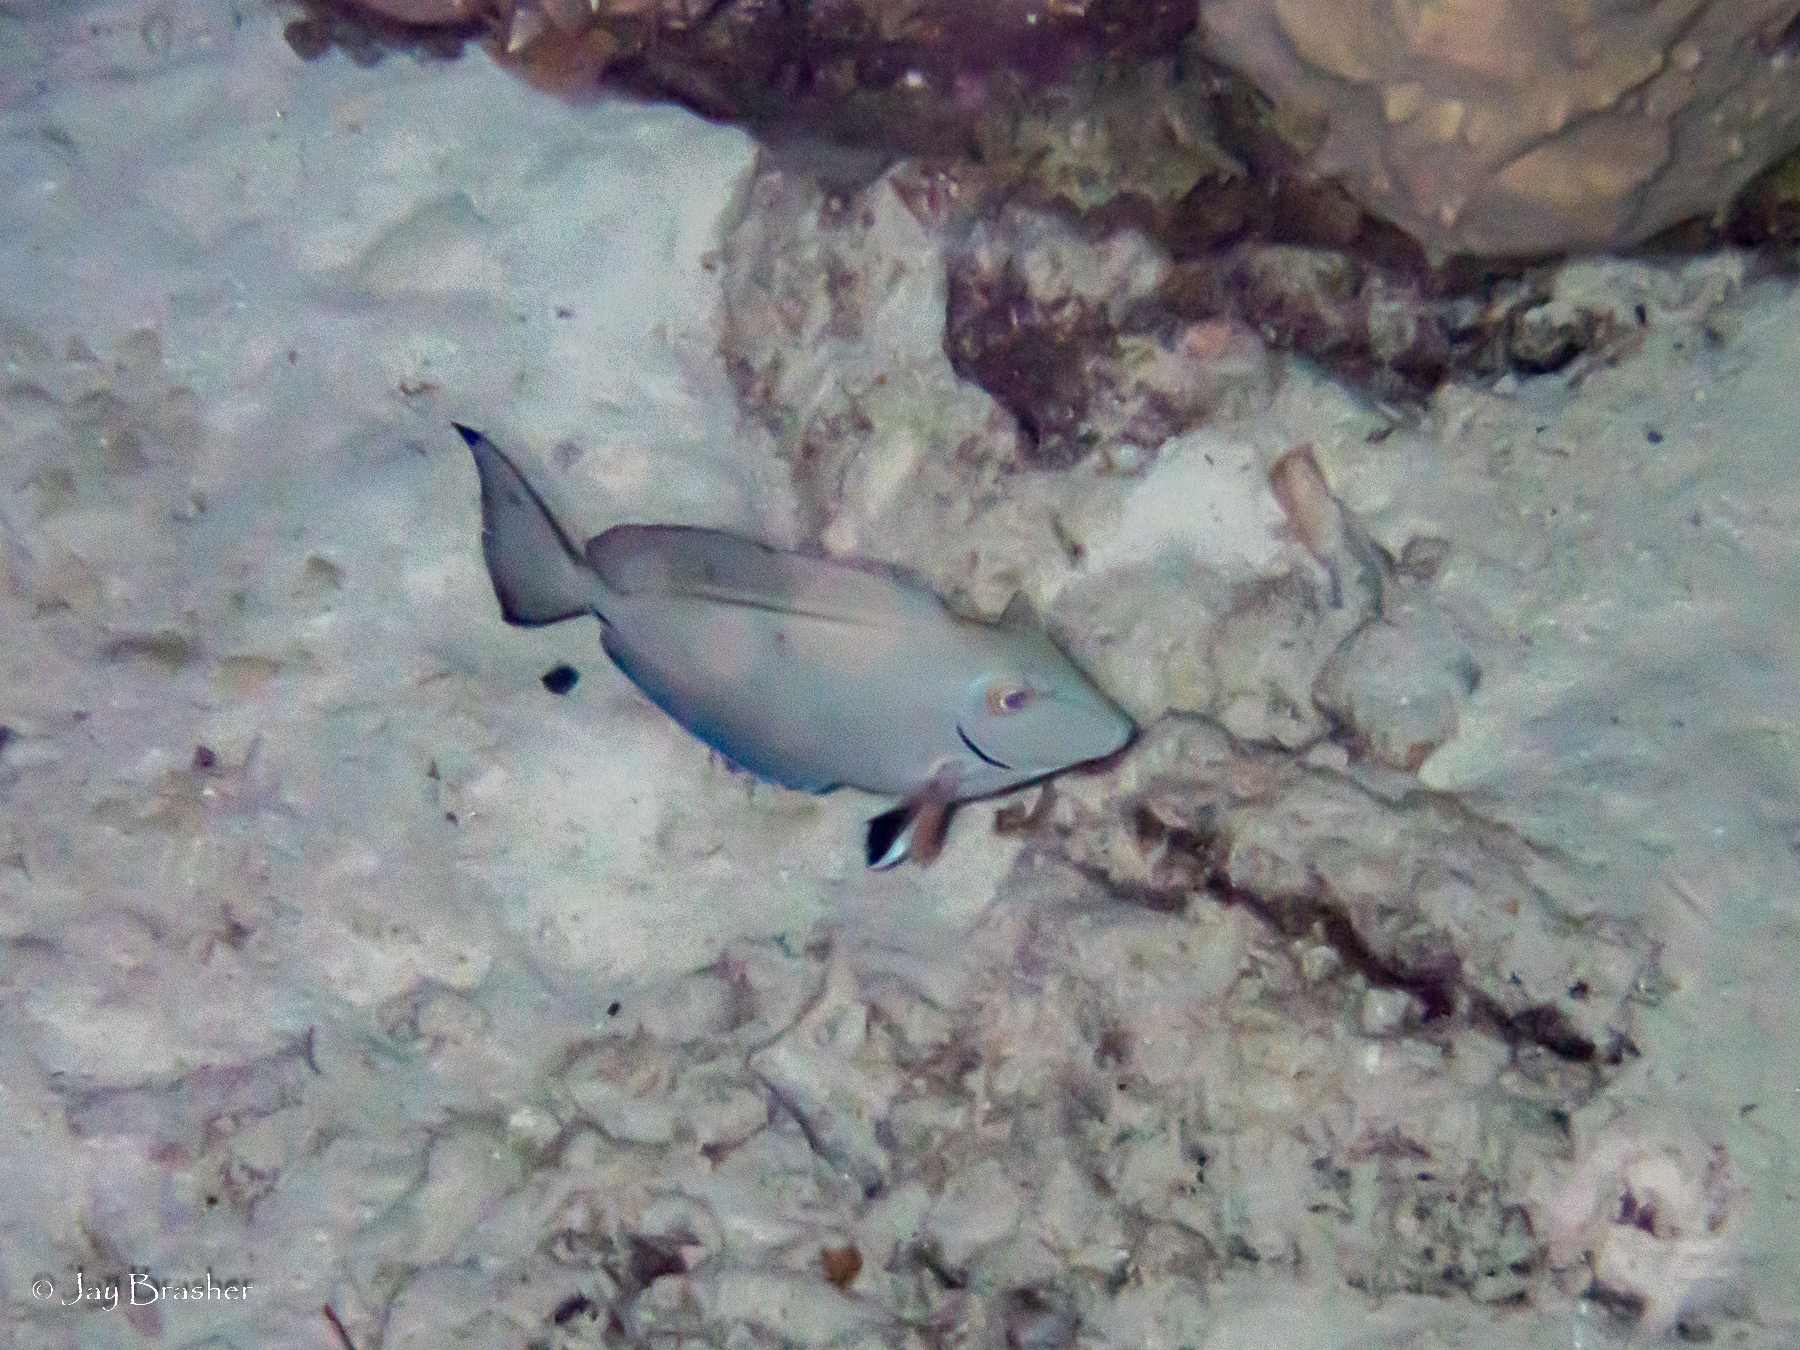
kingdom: Animalia
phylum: Chordata
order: Perciformes
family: Acanthuridae
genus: Acanthurus
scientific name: Acanthurus bahianus
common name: Ocean surgeon
